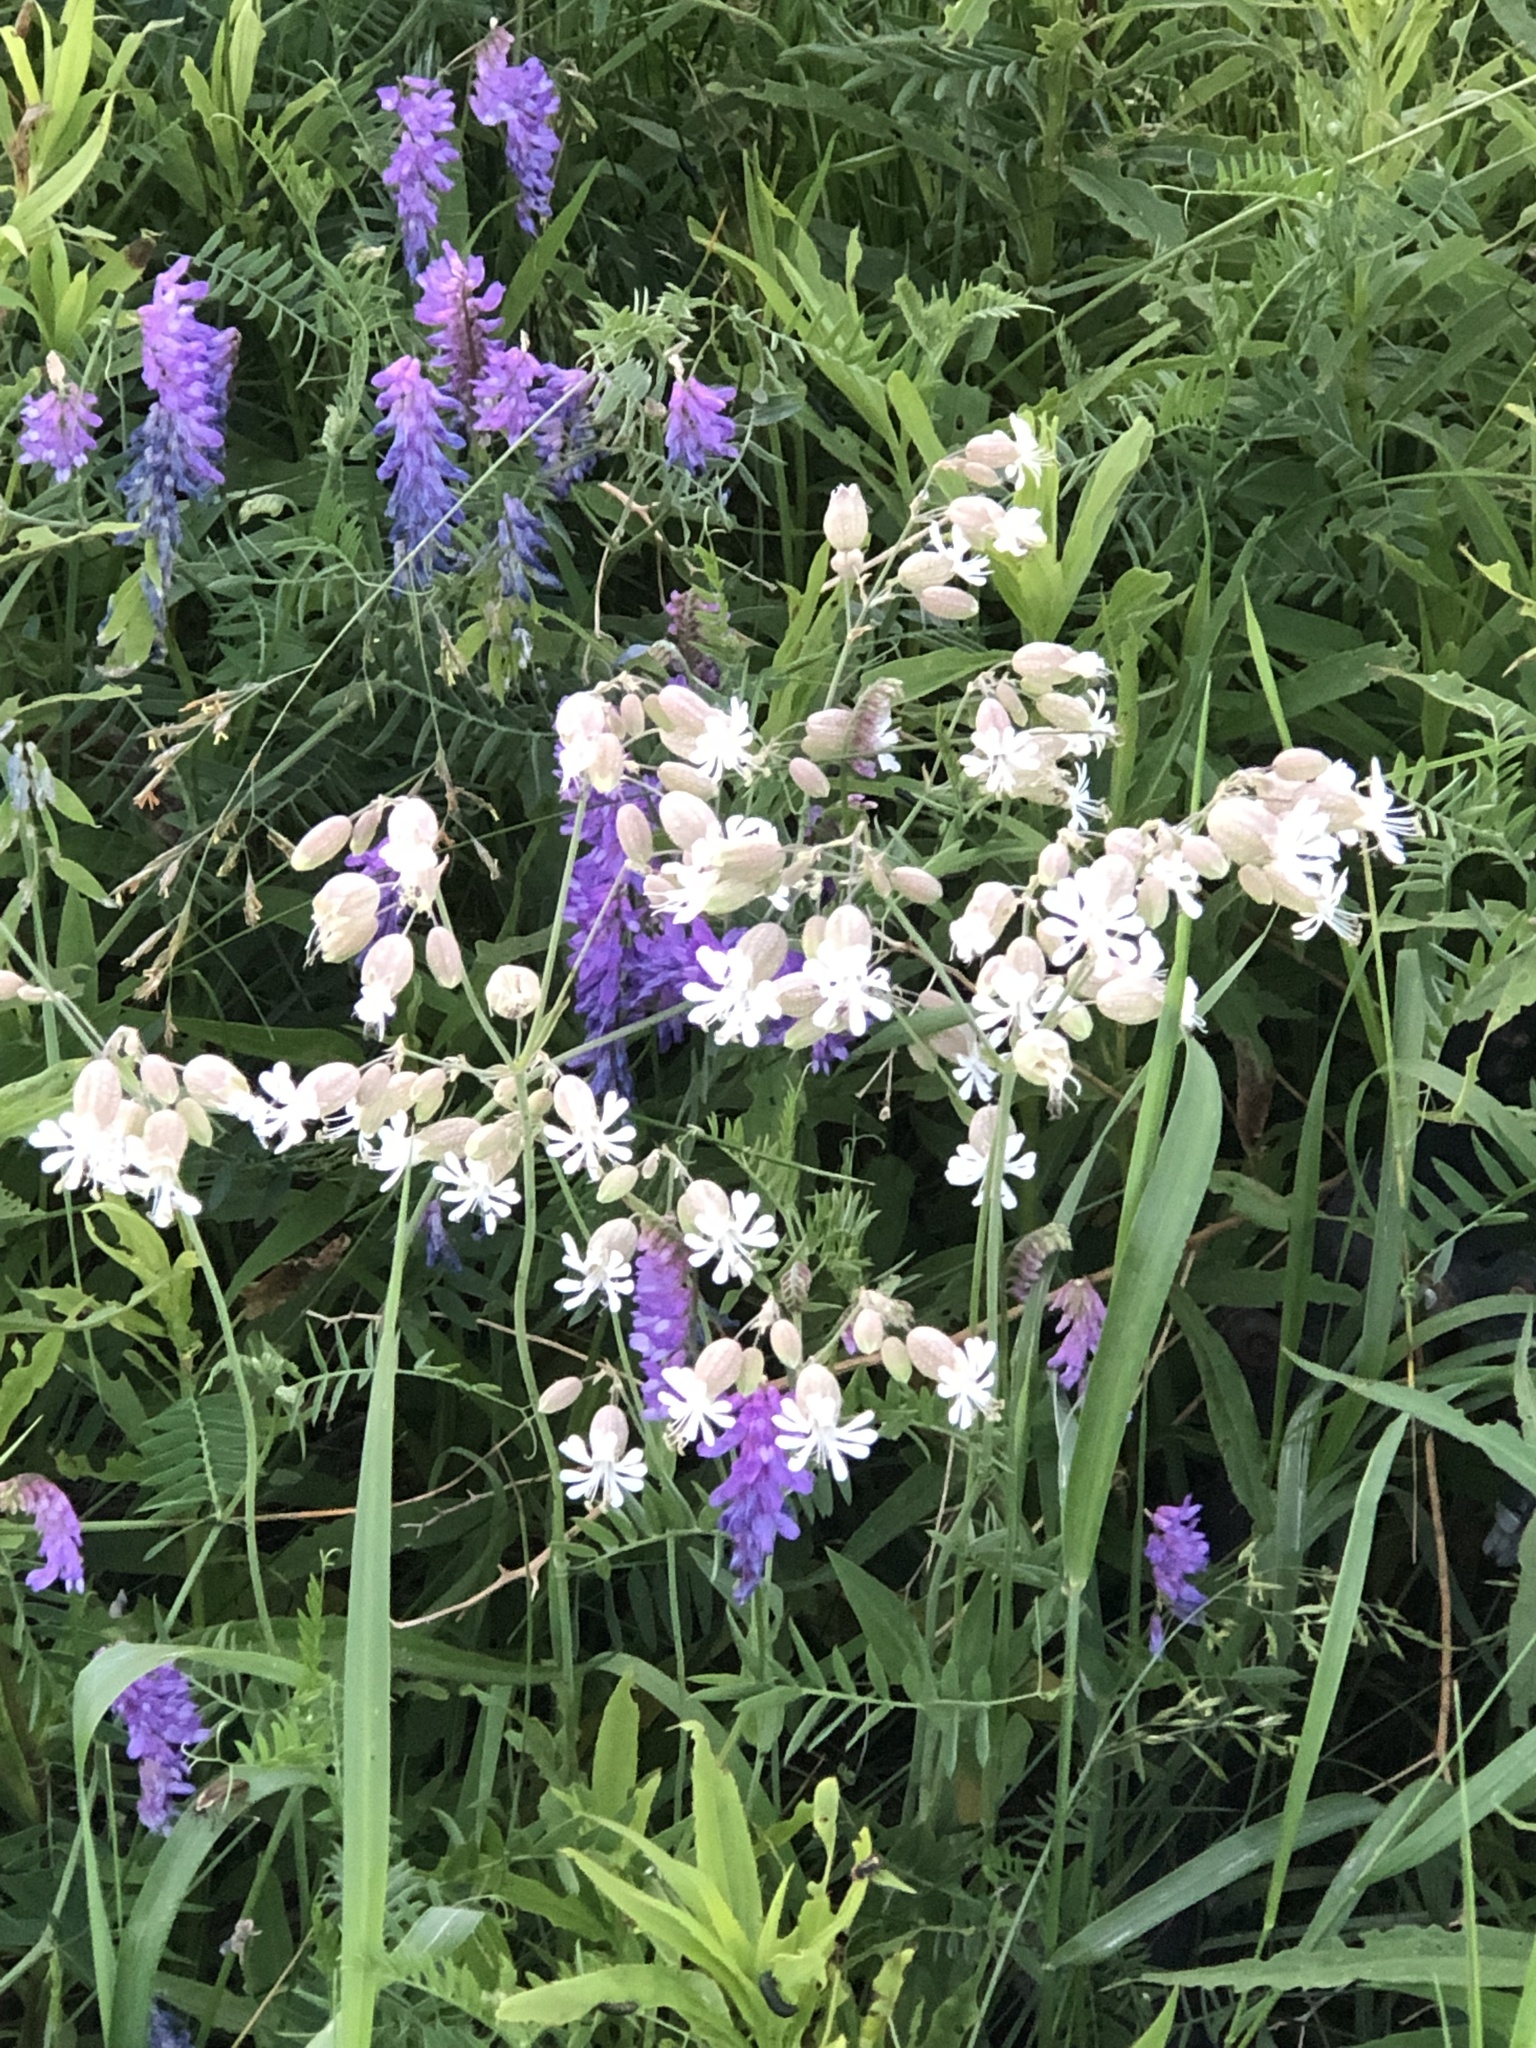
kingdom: Plantae
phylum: Tracheophyta
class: Magnoliopsida
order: Caryophyllales
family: Caryophyllaceae
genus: Silene
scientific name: Silene vulgaris
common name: Bladder campion
